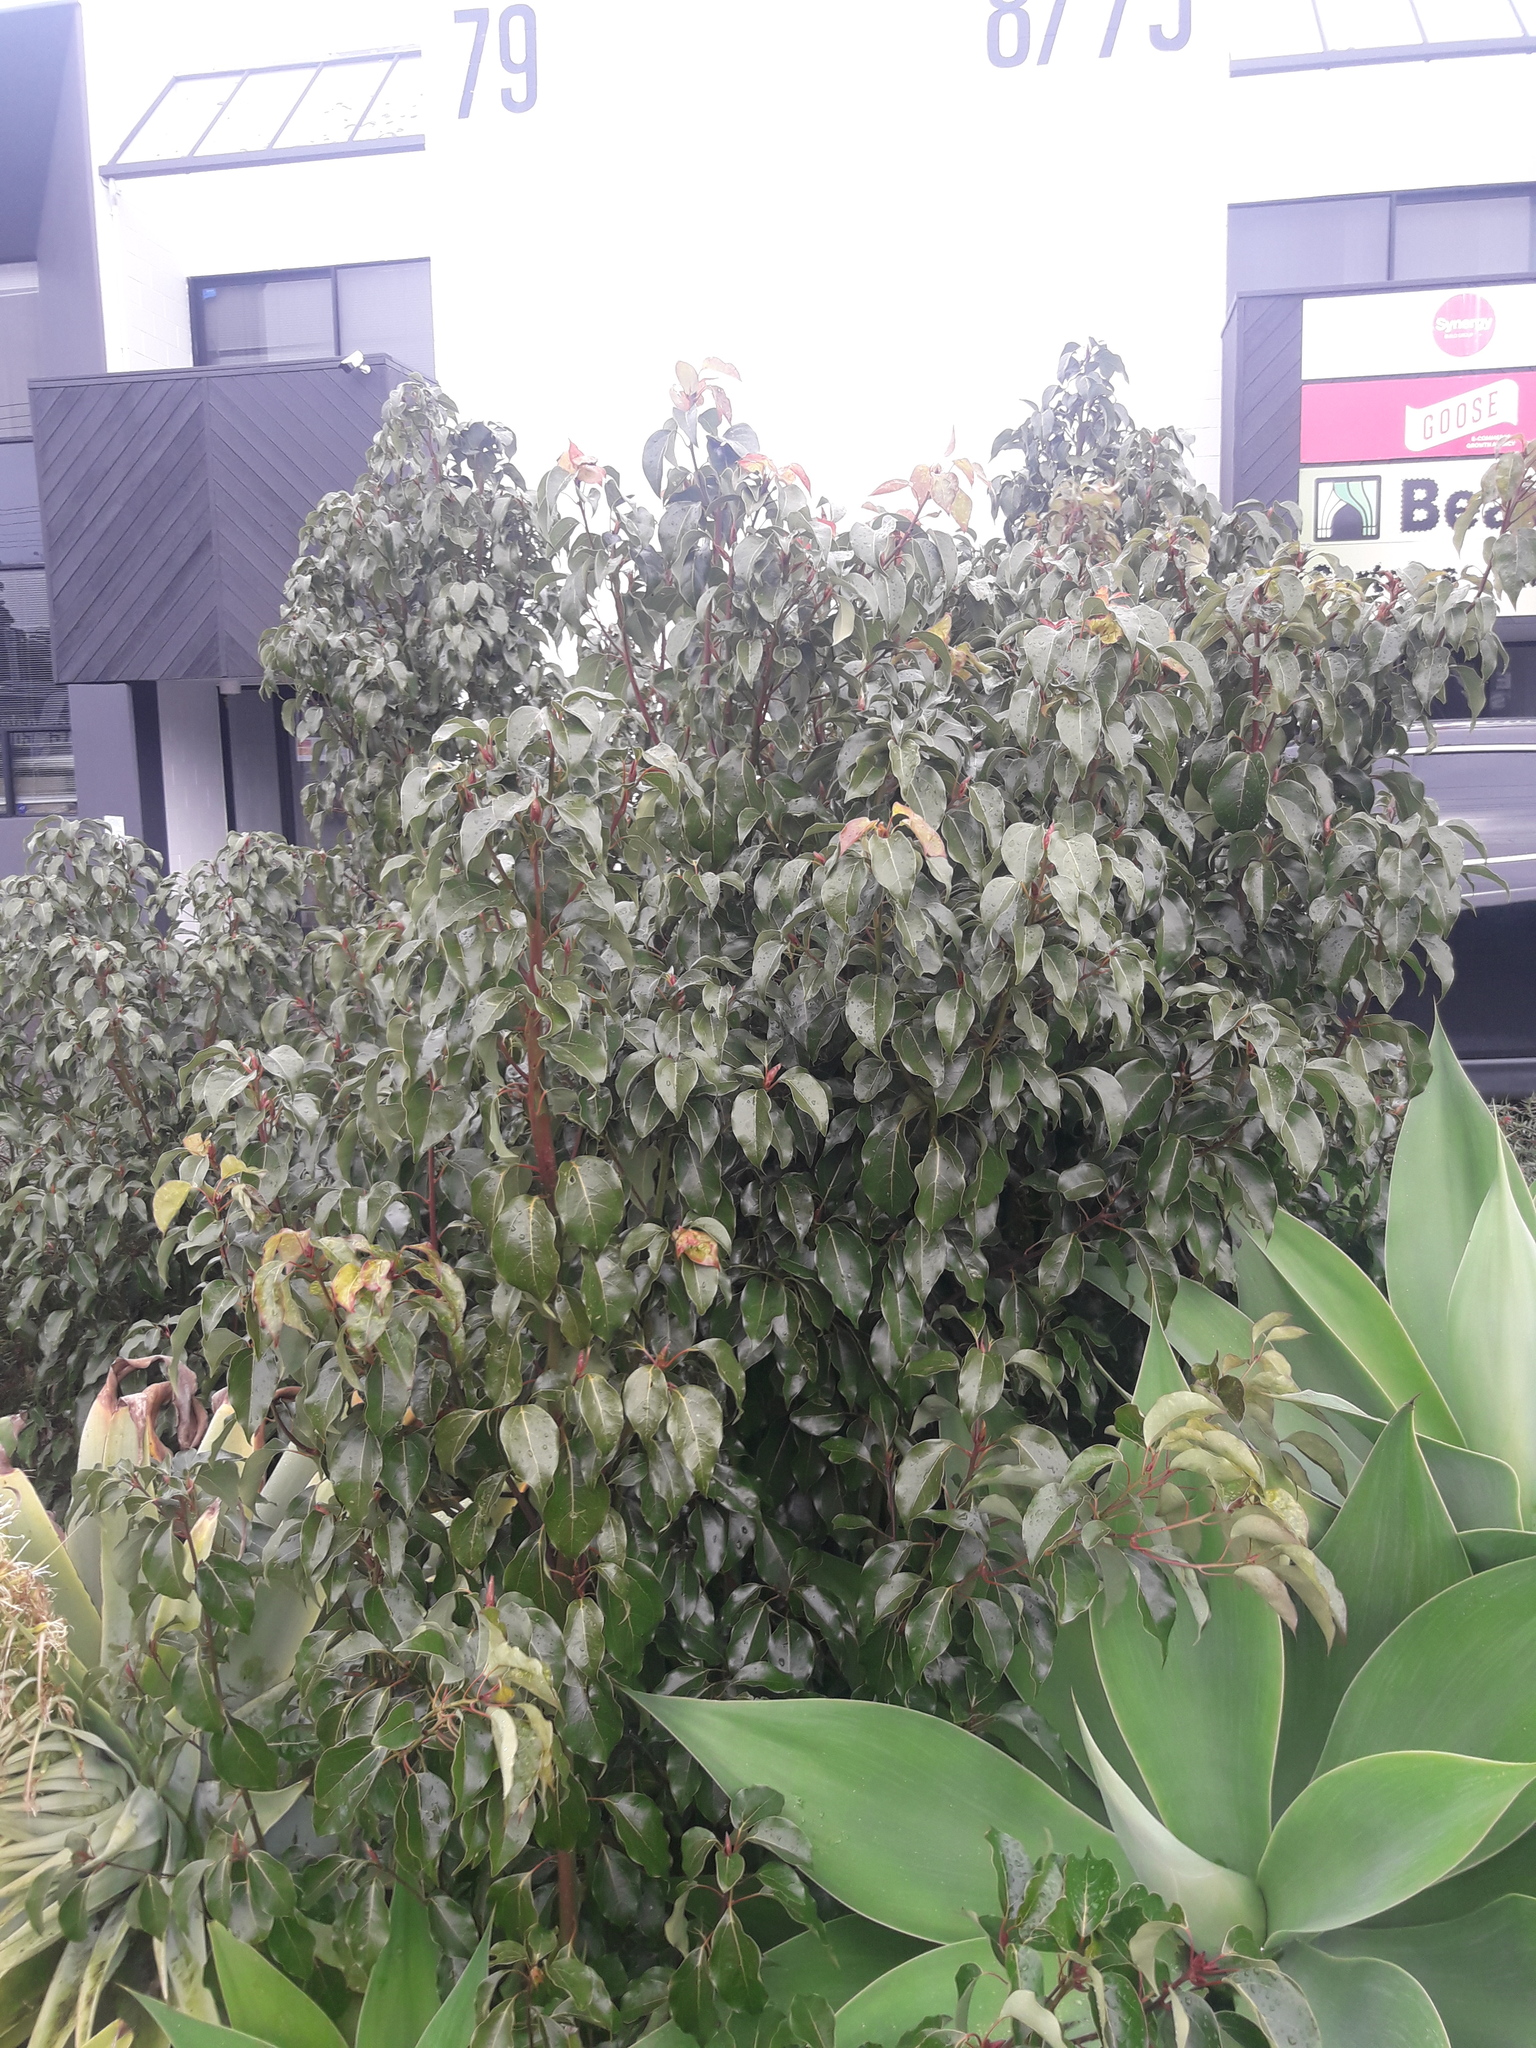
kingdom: Plantae
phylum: Tracheophyta
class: Magnoliopsida
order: Laurales
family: Lauraceae
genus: Cinnamomum
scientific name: Cinnamomum camphora
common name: Camphortree
